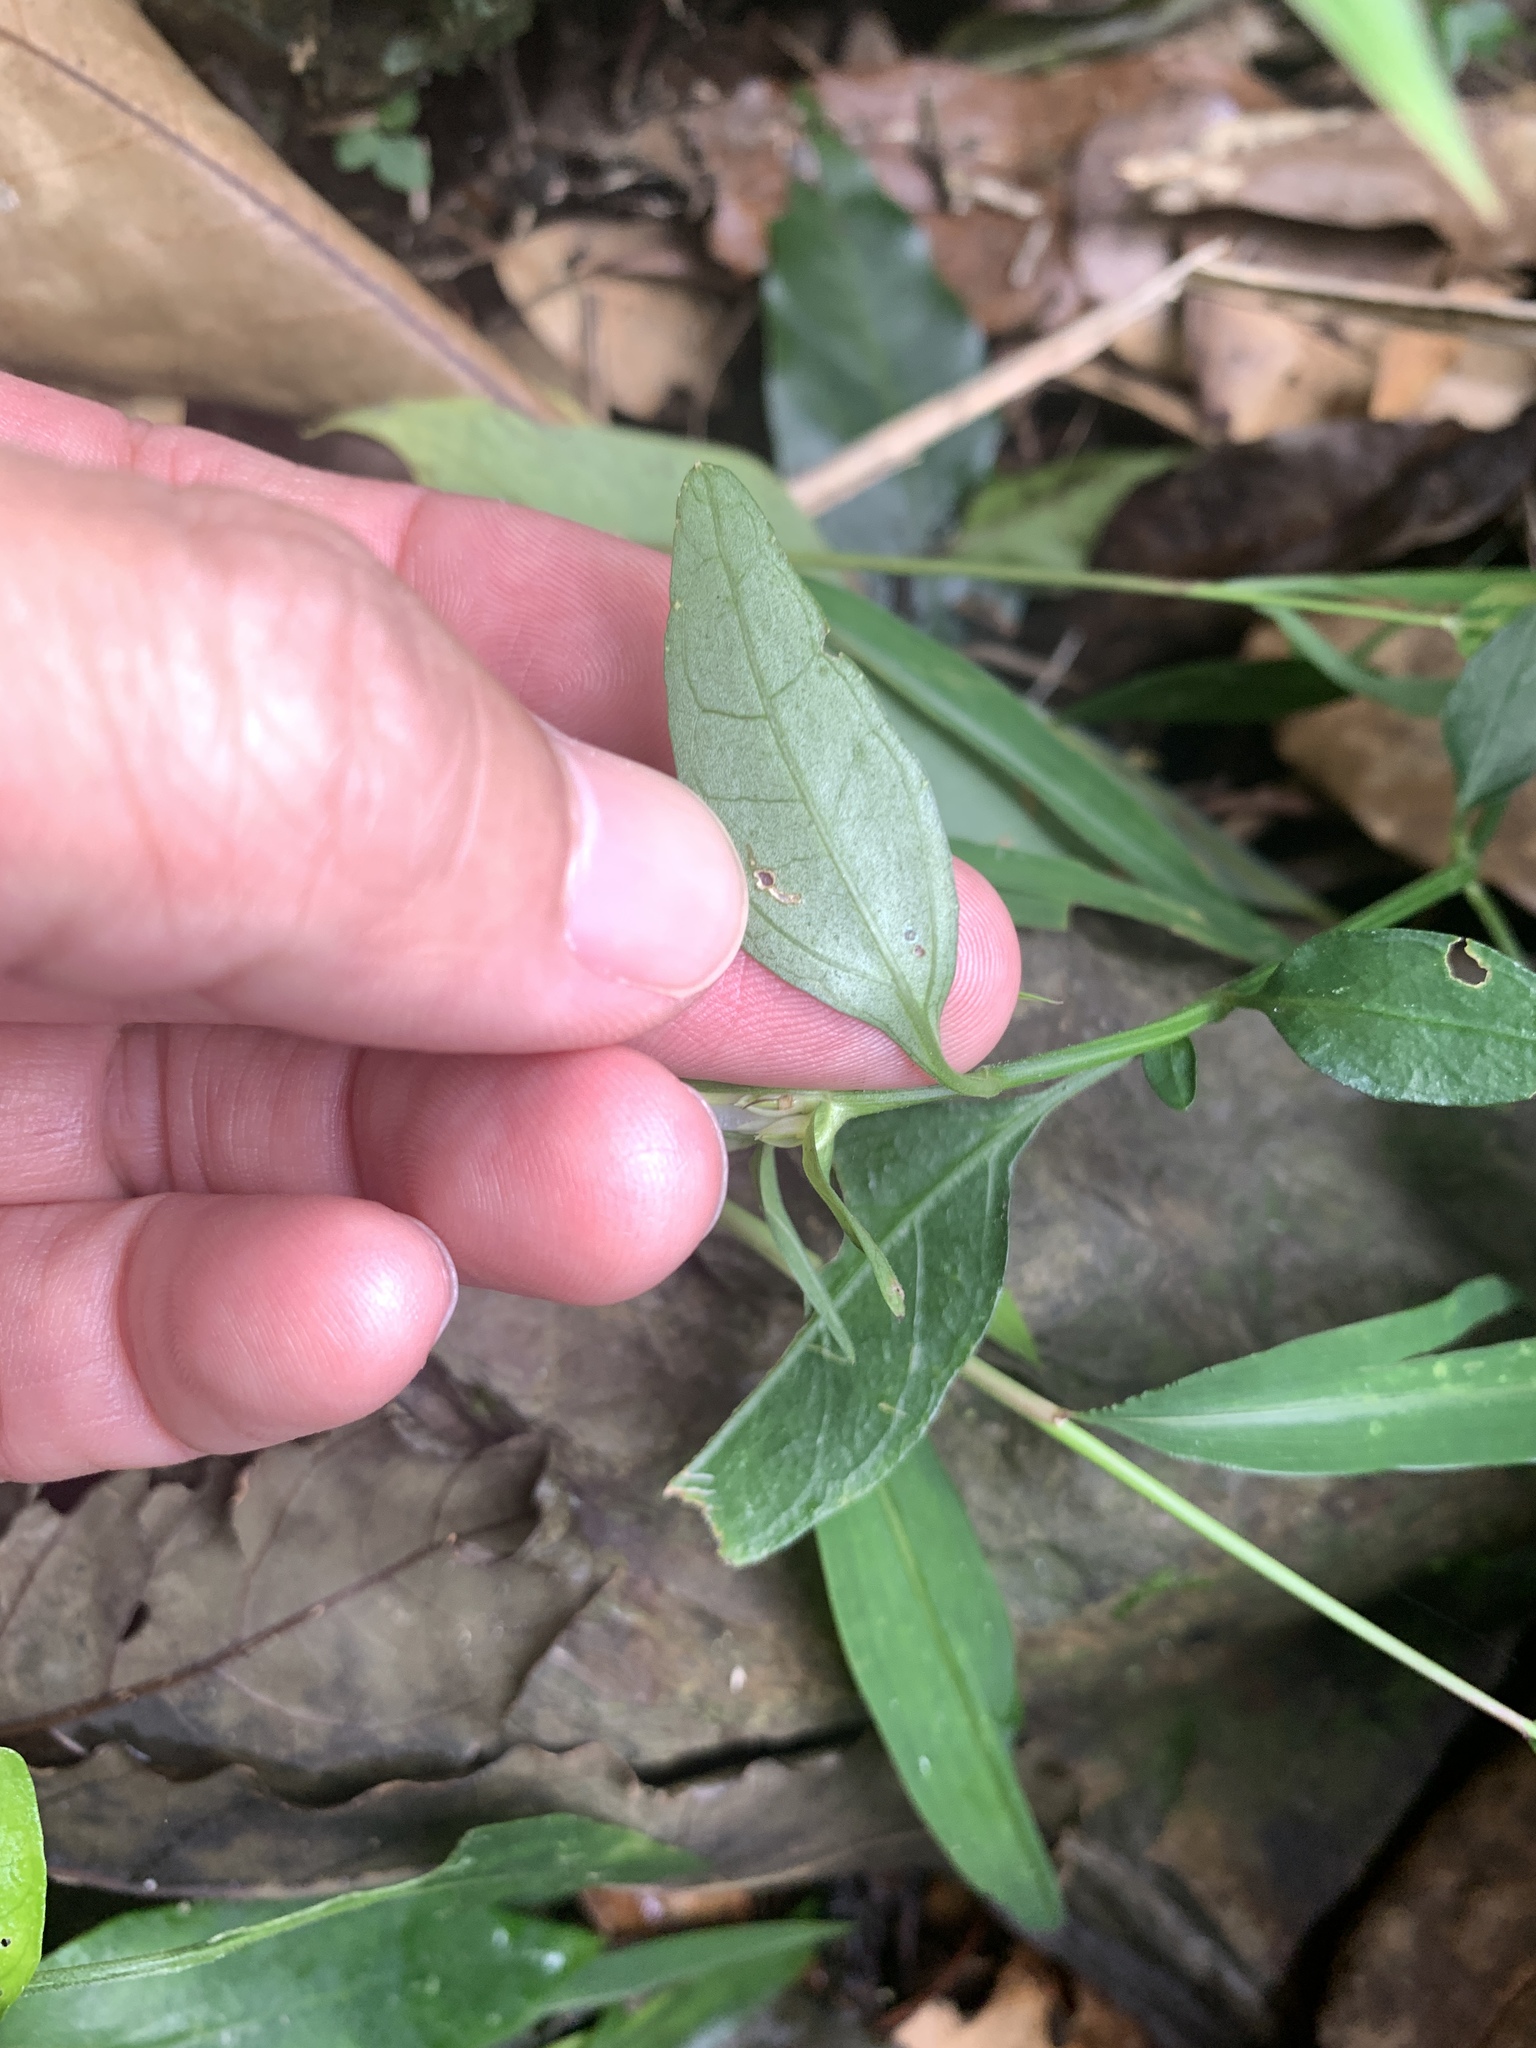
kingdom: Plantae
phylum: Tracheophyta
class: Magnoliopsida
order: Lamiales
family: Acanthaceae
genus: Dicliptera
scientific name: Dicliptera tinctoria
